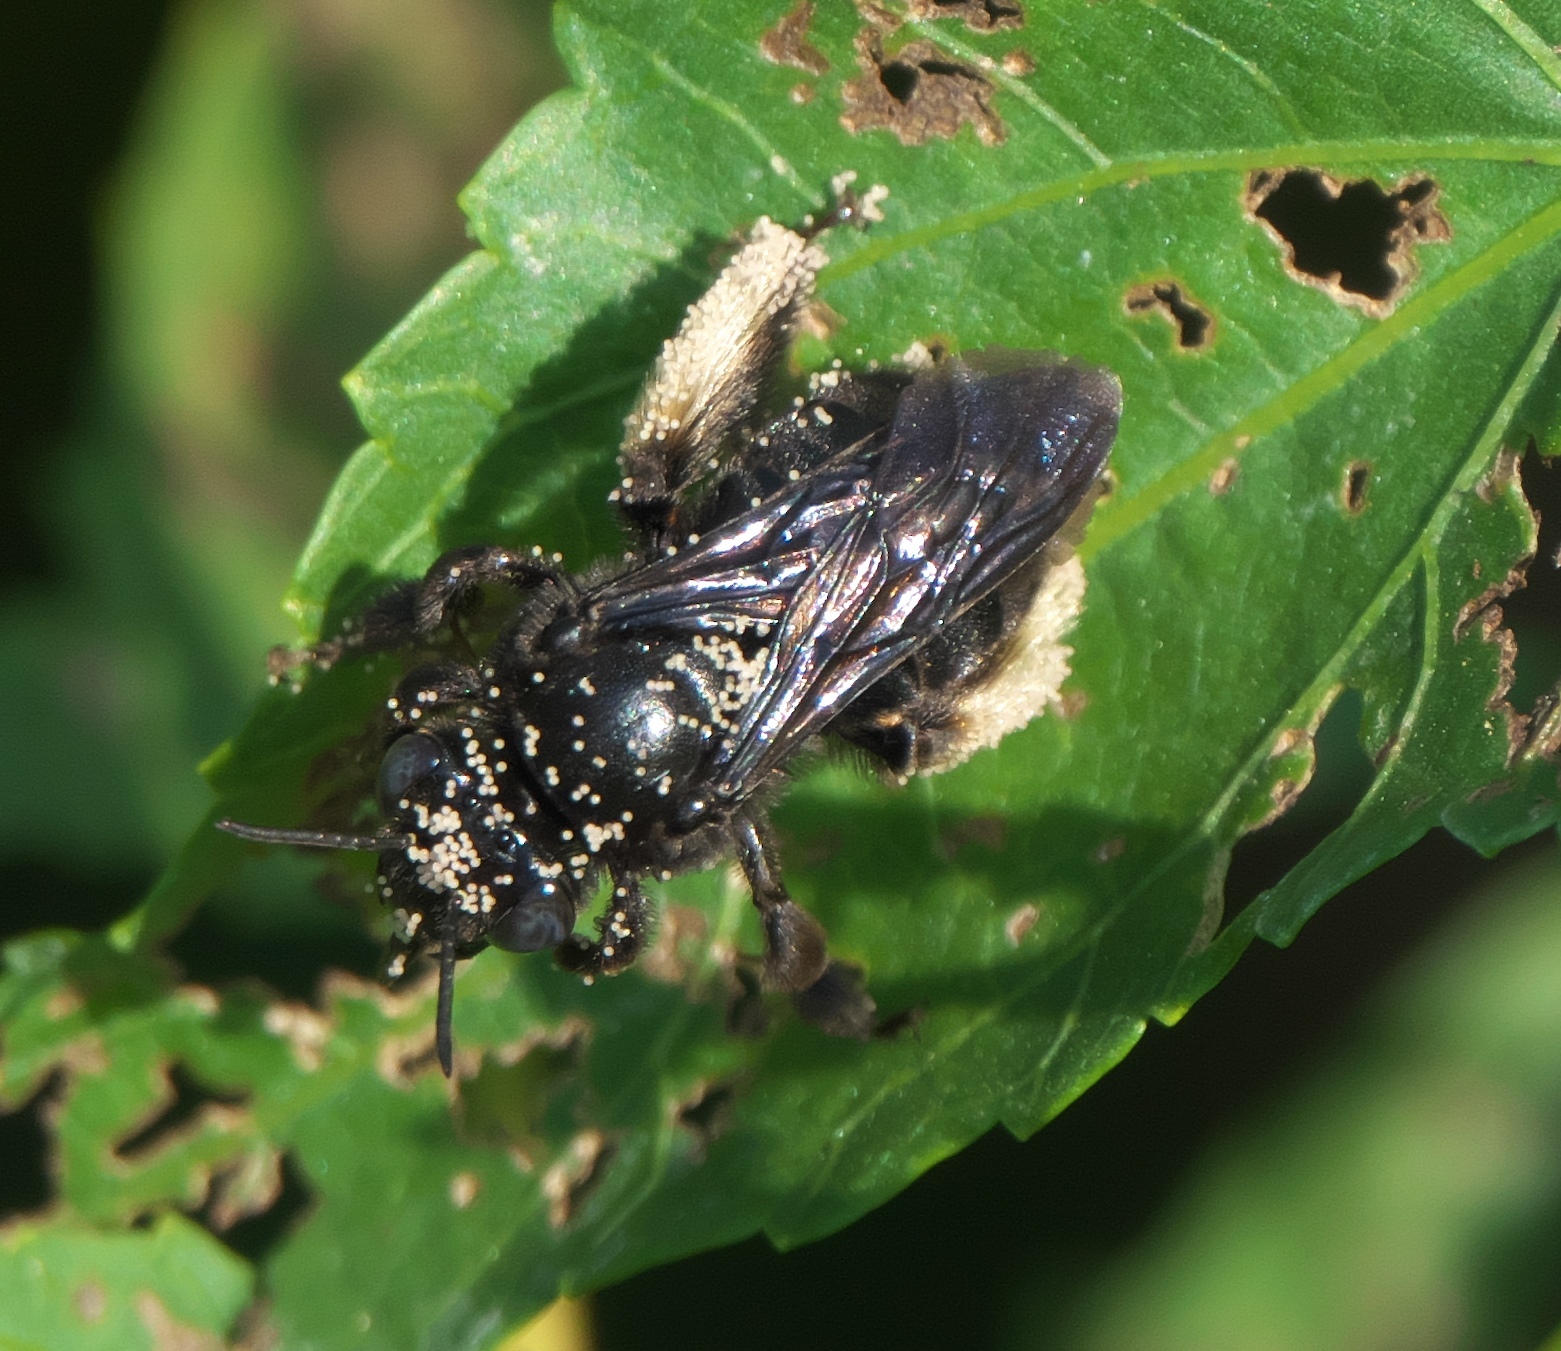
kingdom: Animalia
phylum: Arthropoda
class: Insecta
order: Hymenoptera
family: Apidae
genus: Melissodes
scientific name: Melissodes bimaculatus
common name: Two-spotted long-horned bee
